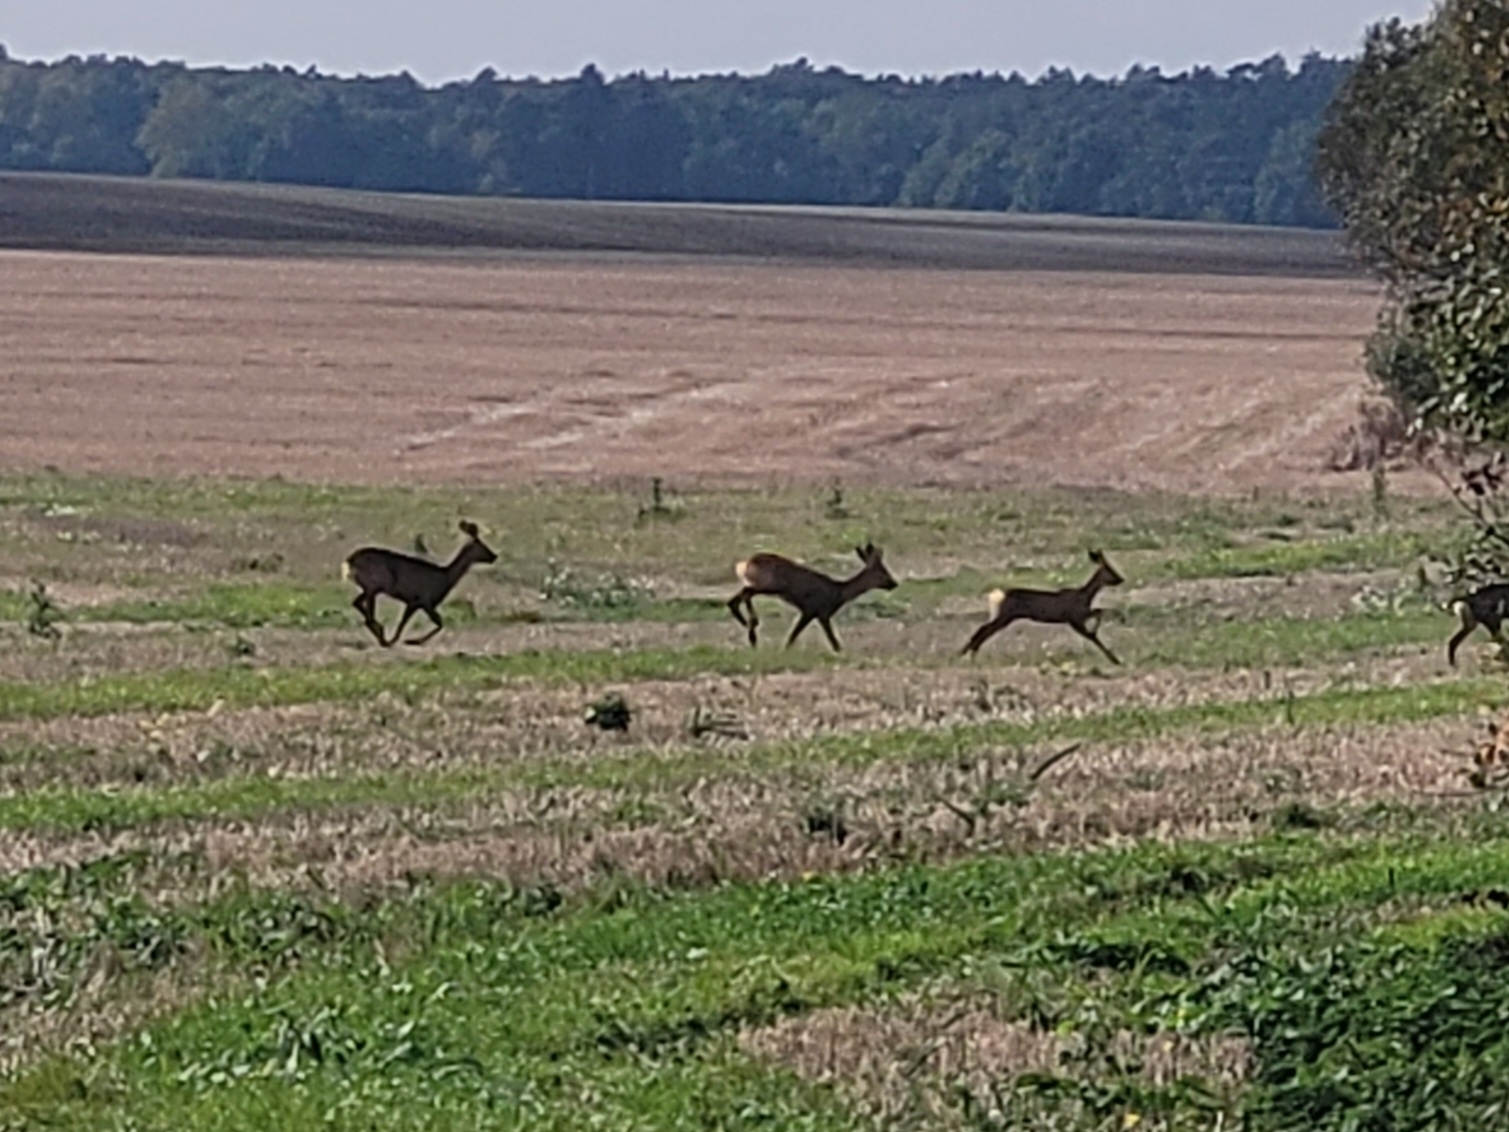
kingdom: Animalia
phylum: Chordata
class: Mammalia
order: Artiodactyla
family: Cervidae
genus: Capreolus
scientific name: Capreolus capreolus
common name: Western roe deer
